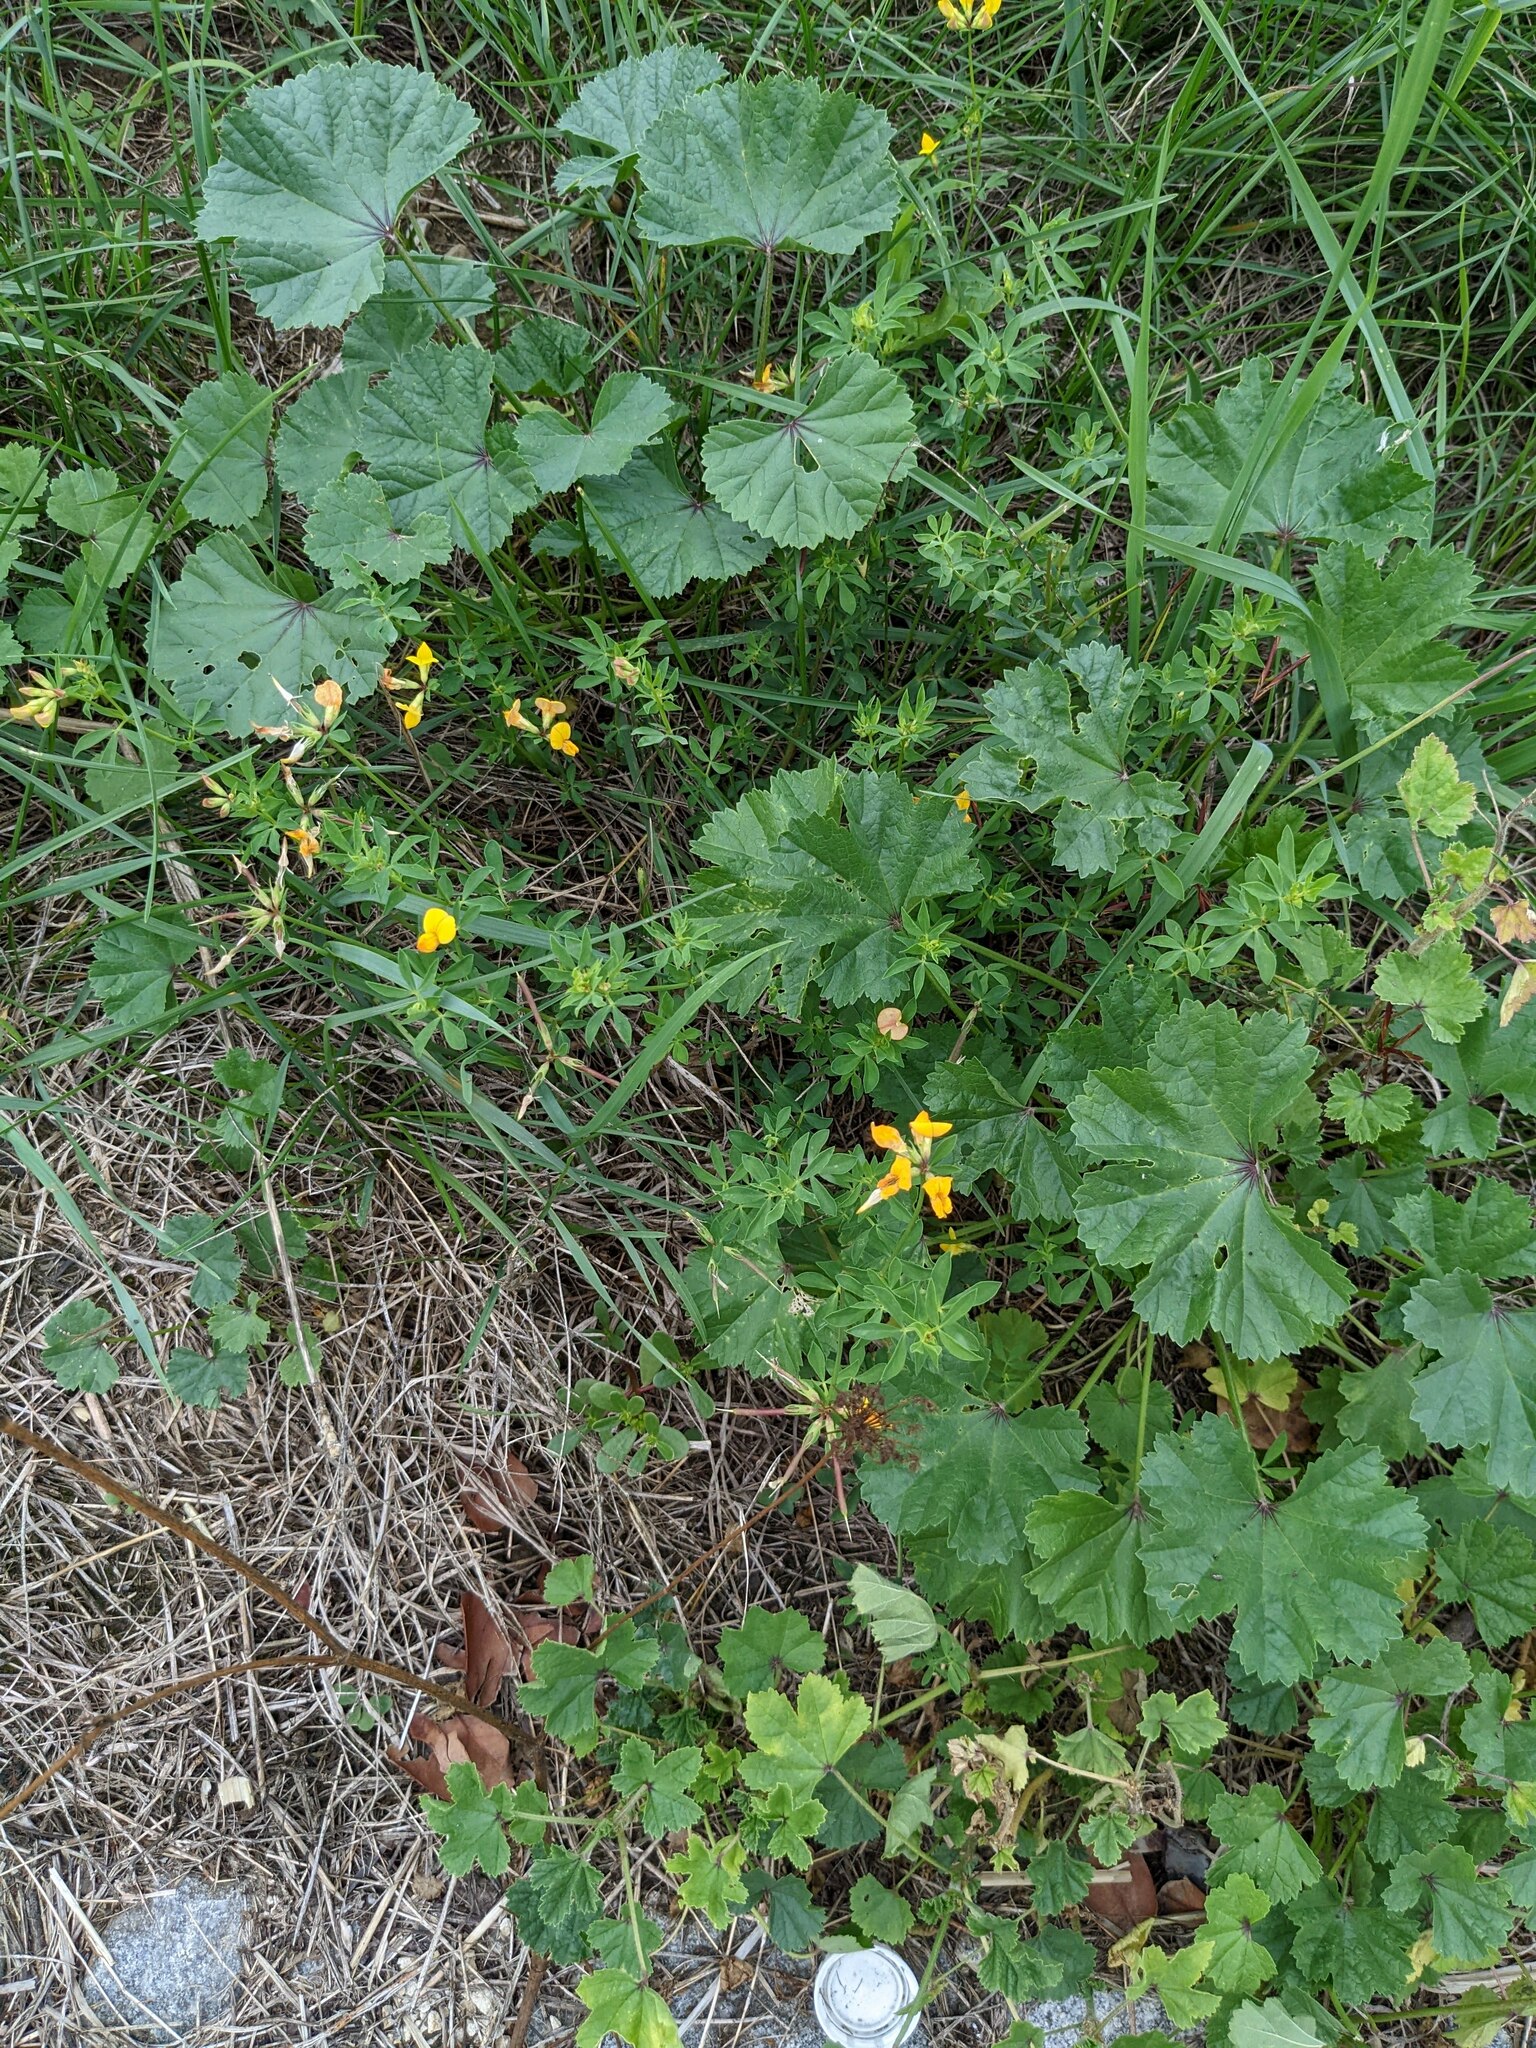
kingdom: Plantae
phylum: Tracheophyta
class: Magnoliopsida
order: Fabales
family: Fabaceae
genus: Lotus
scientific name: Lotus corniculatus
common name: Common bird's-foot-trefoil
